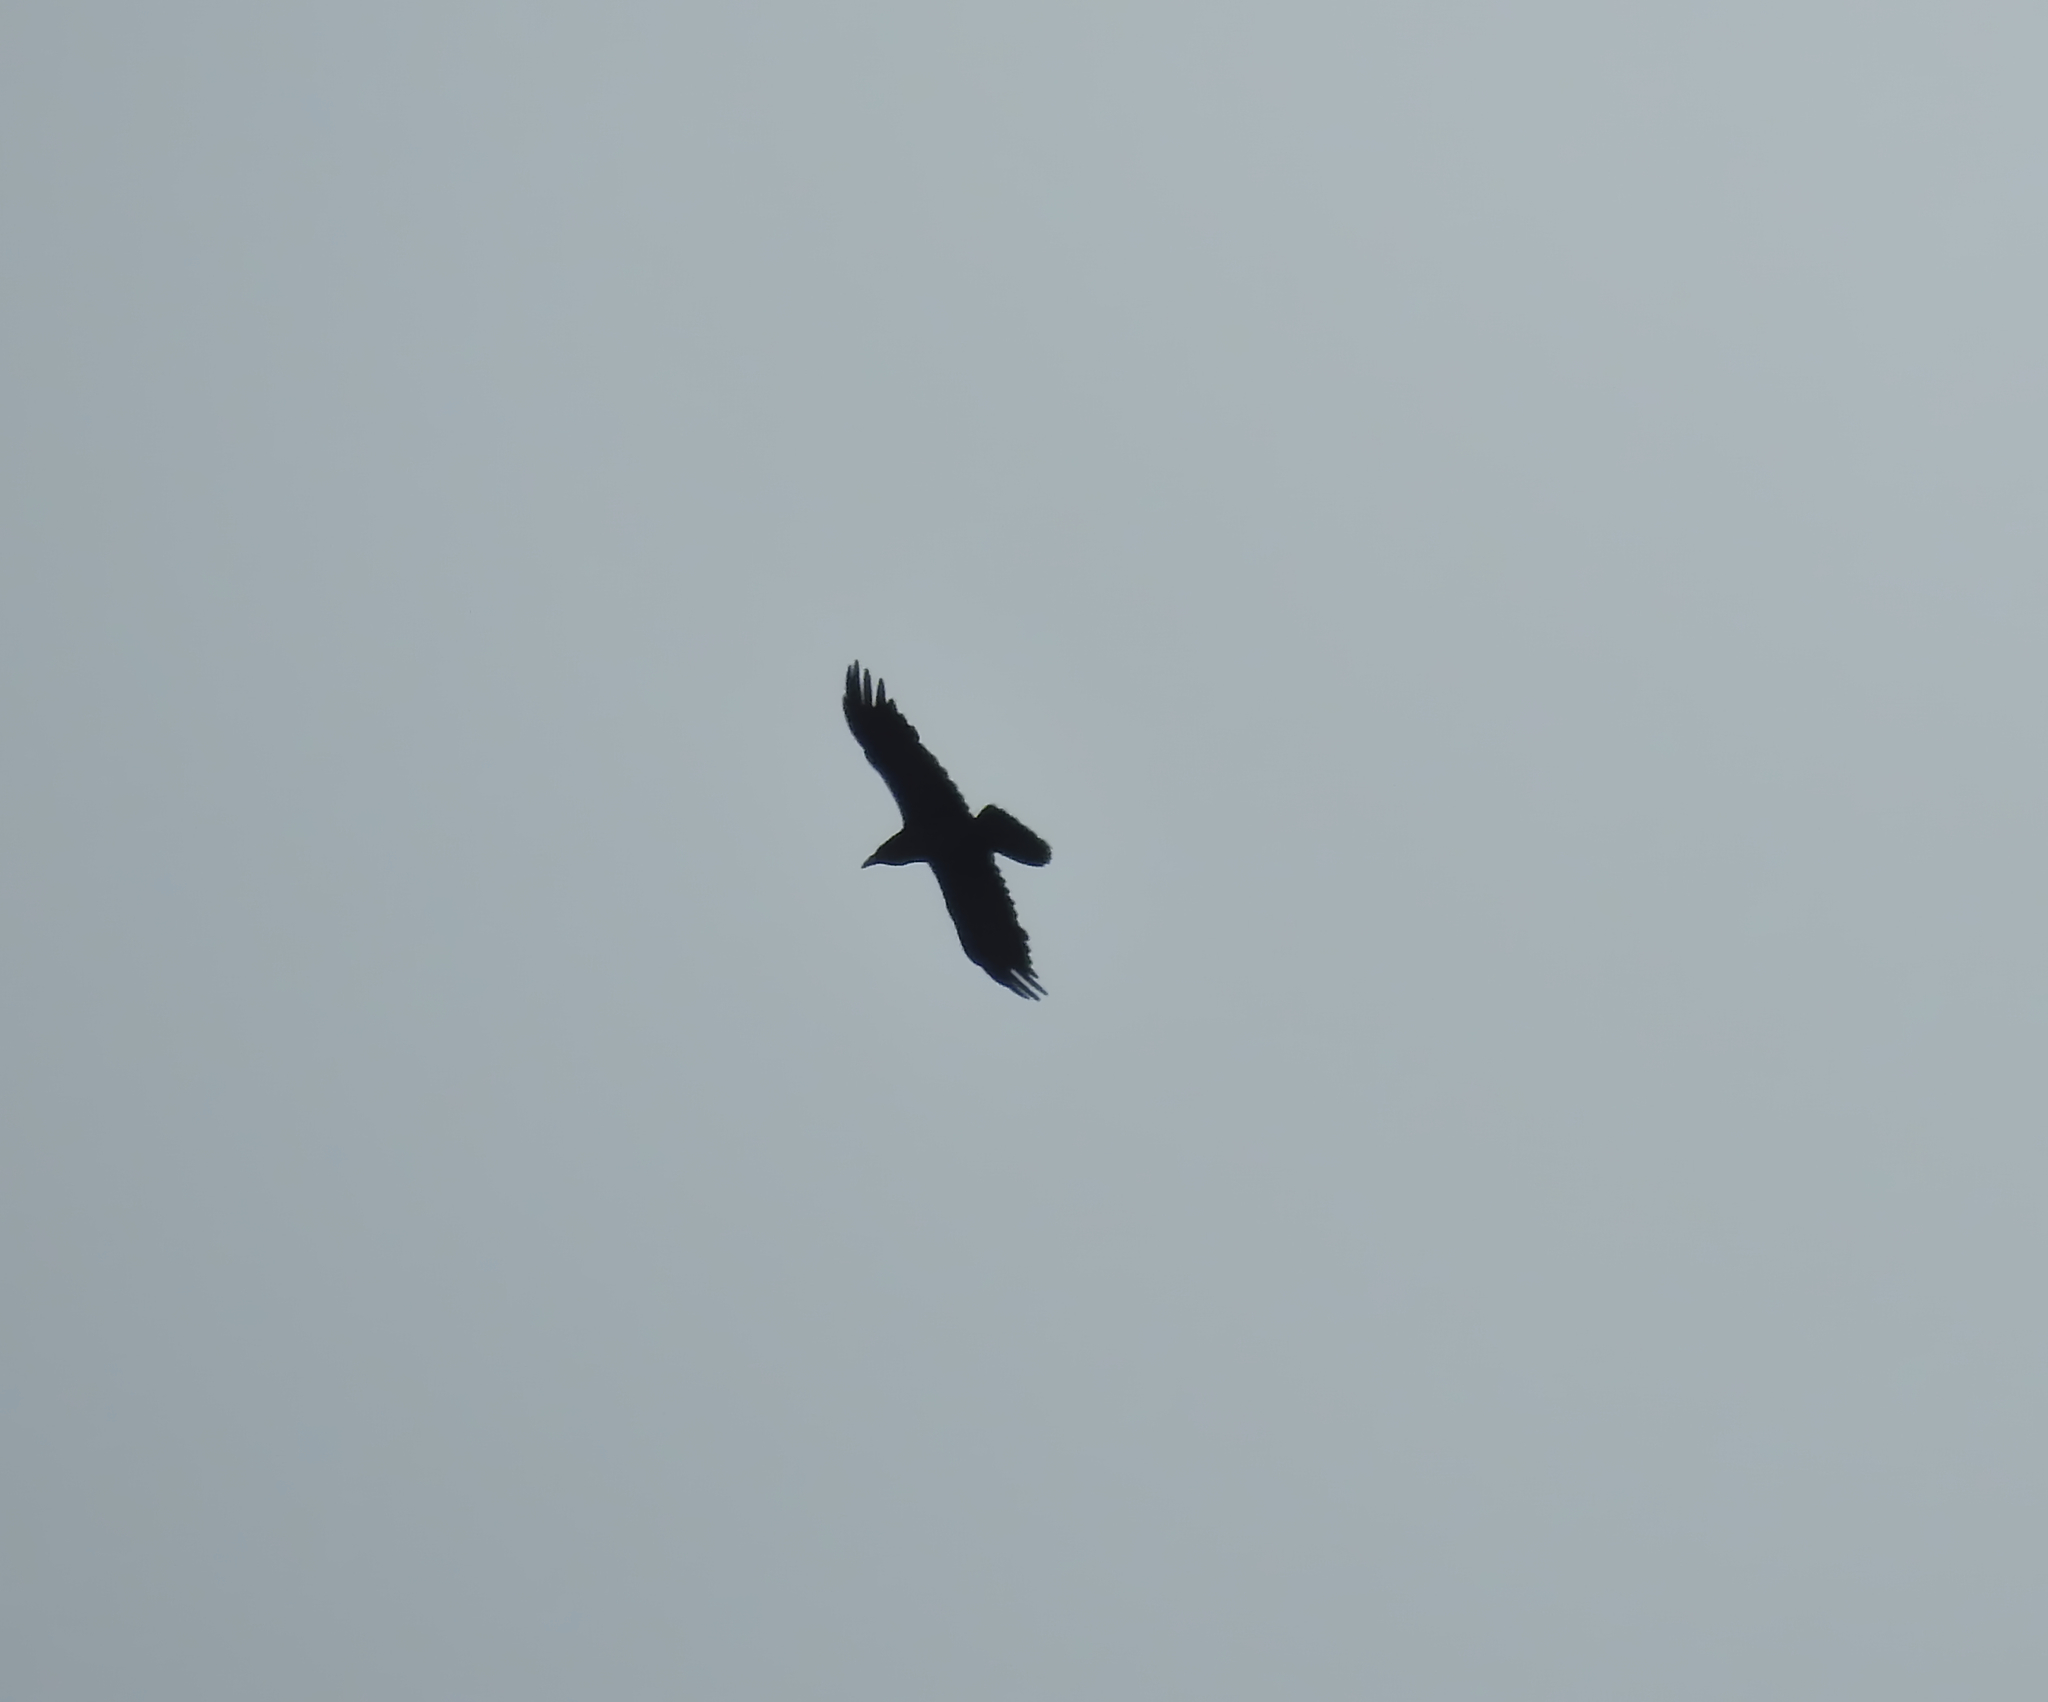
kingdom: Animalia
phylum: Chordata
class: Aves
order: Passeriformes
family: Corvidae
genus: Corvus
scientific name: Corvus corax
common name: Common raven
